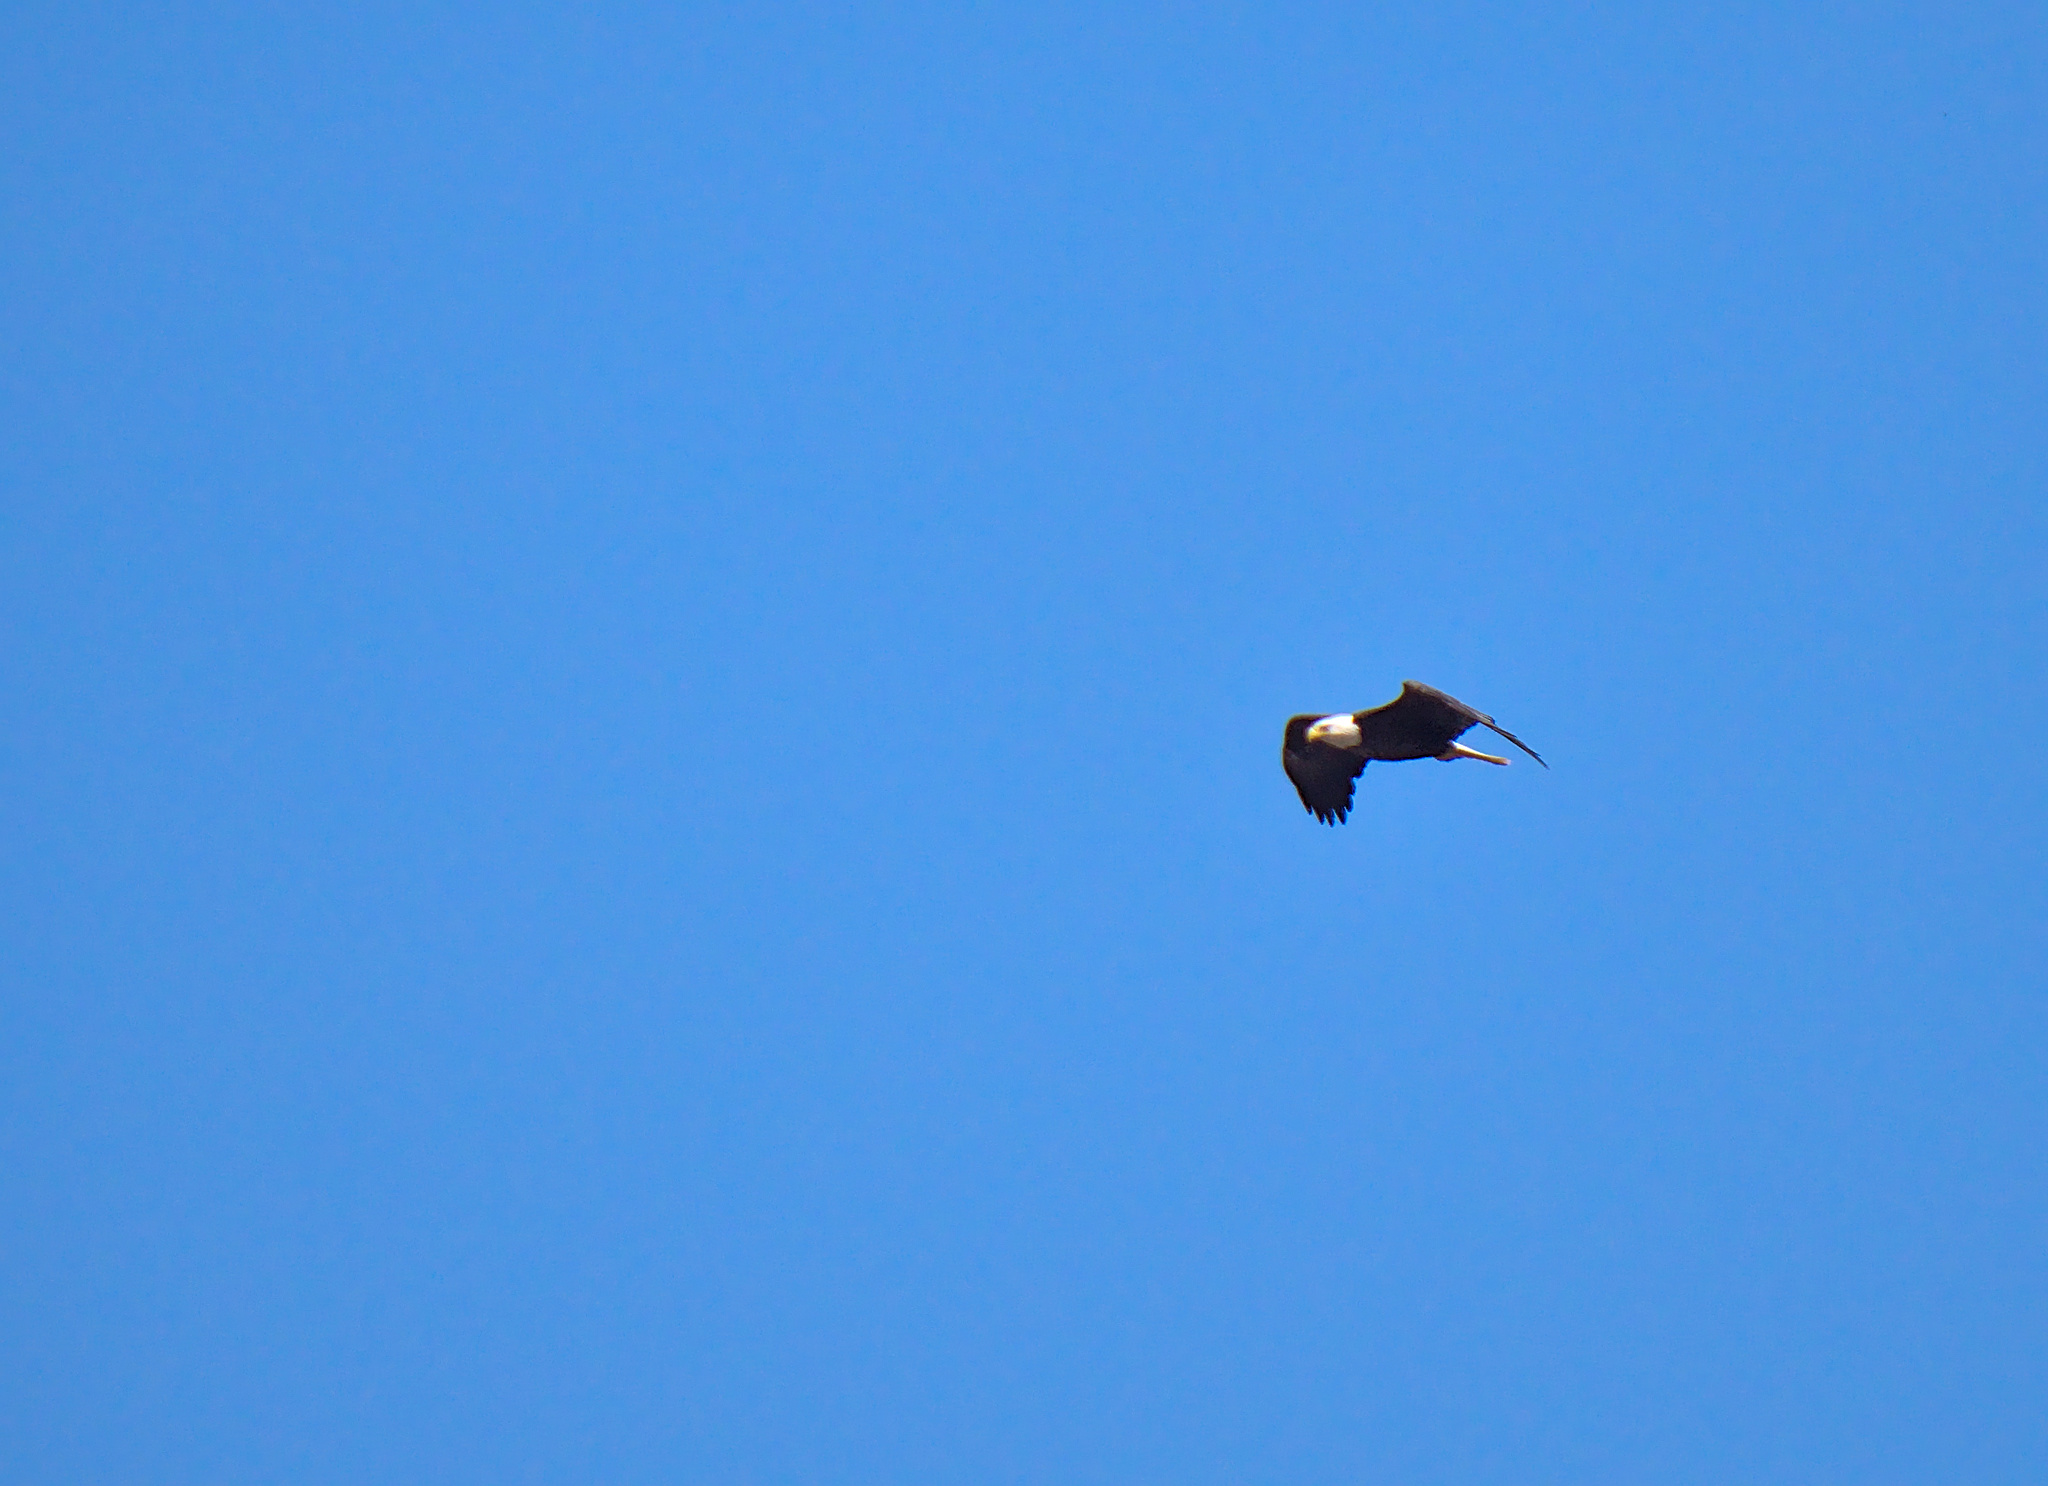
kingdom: Animalia
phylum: Chordata
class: Aves
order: Accipitriformes
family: Accipitridae
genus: Haliaeetus
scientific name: Haliaeetus leucocephalus
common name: Bald eagle
